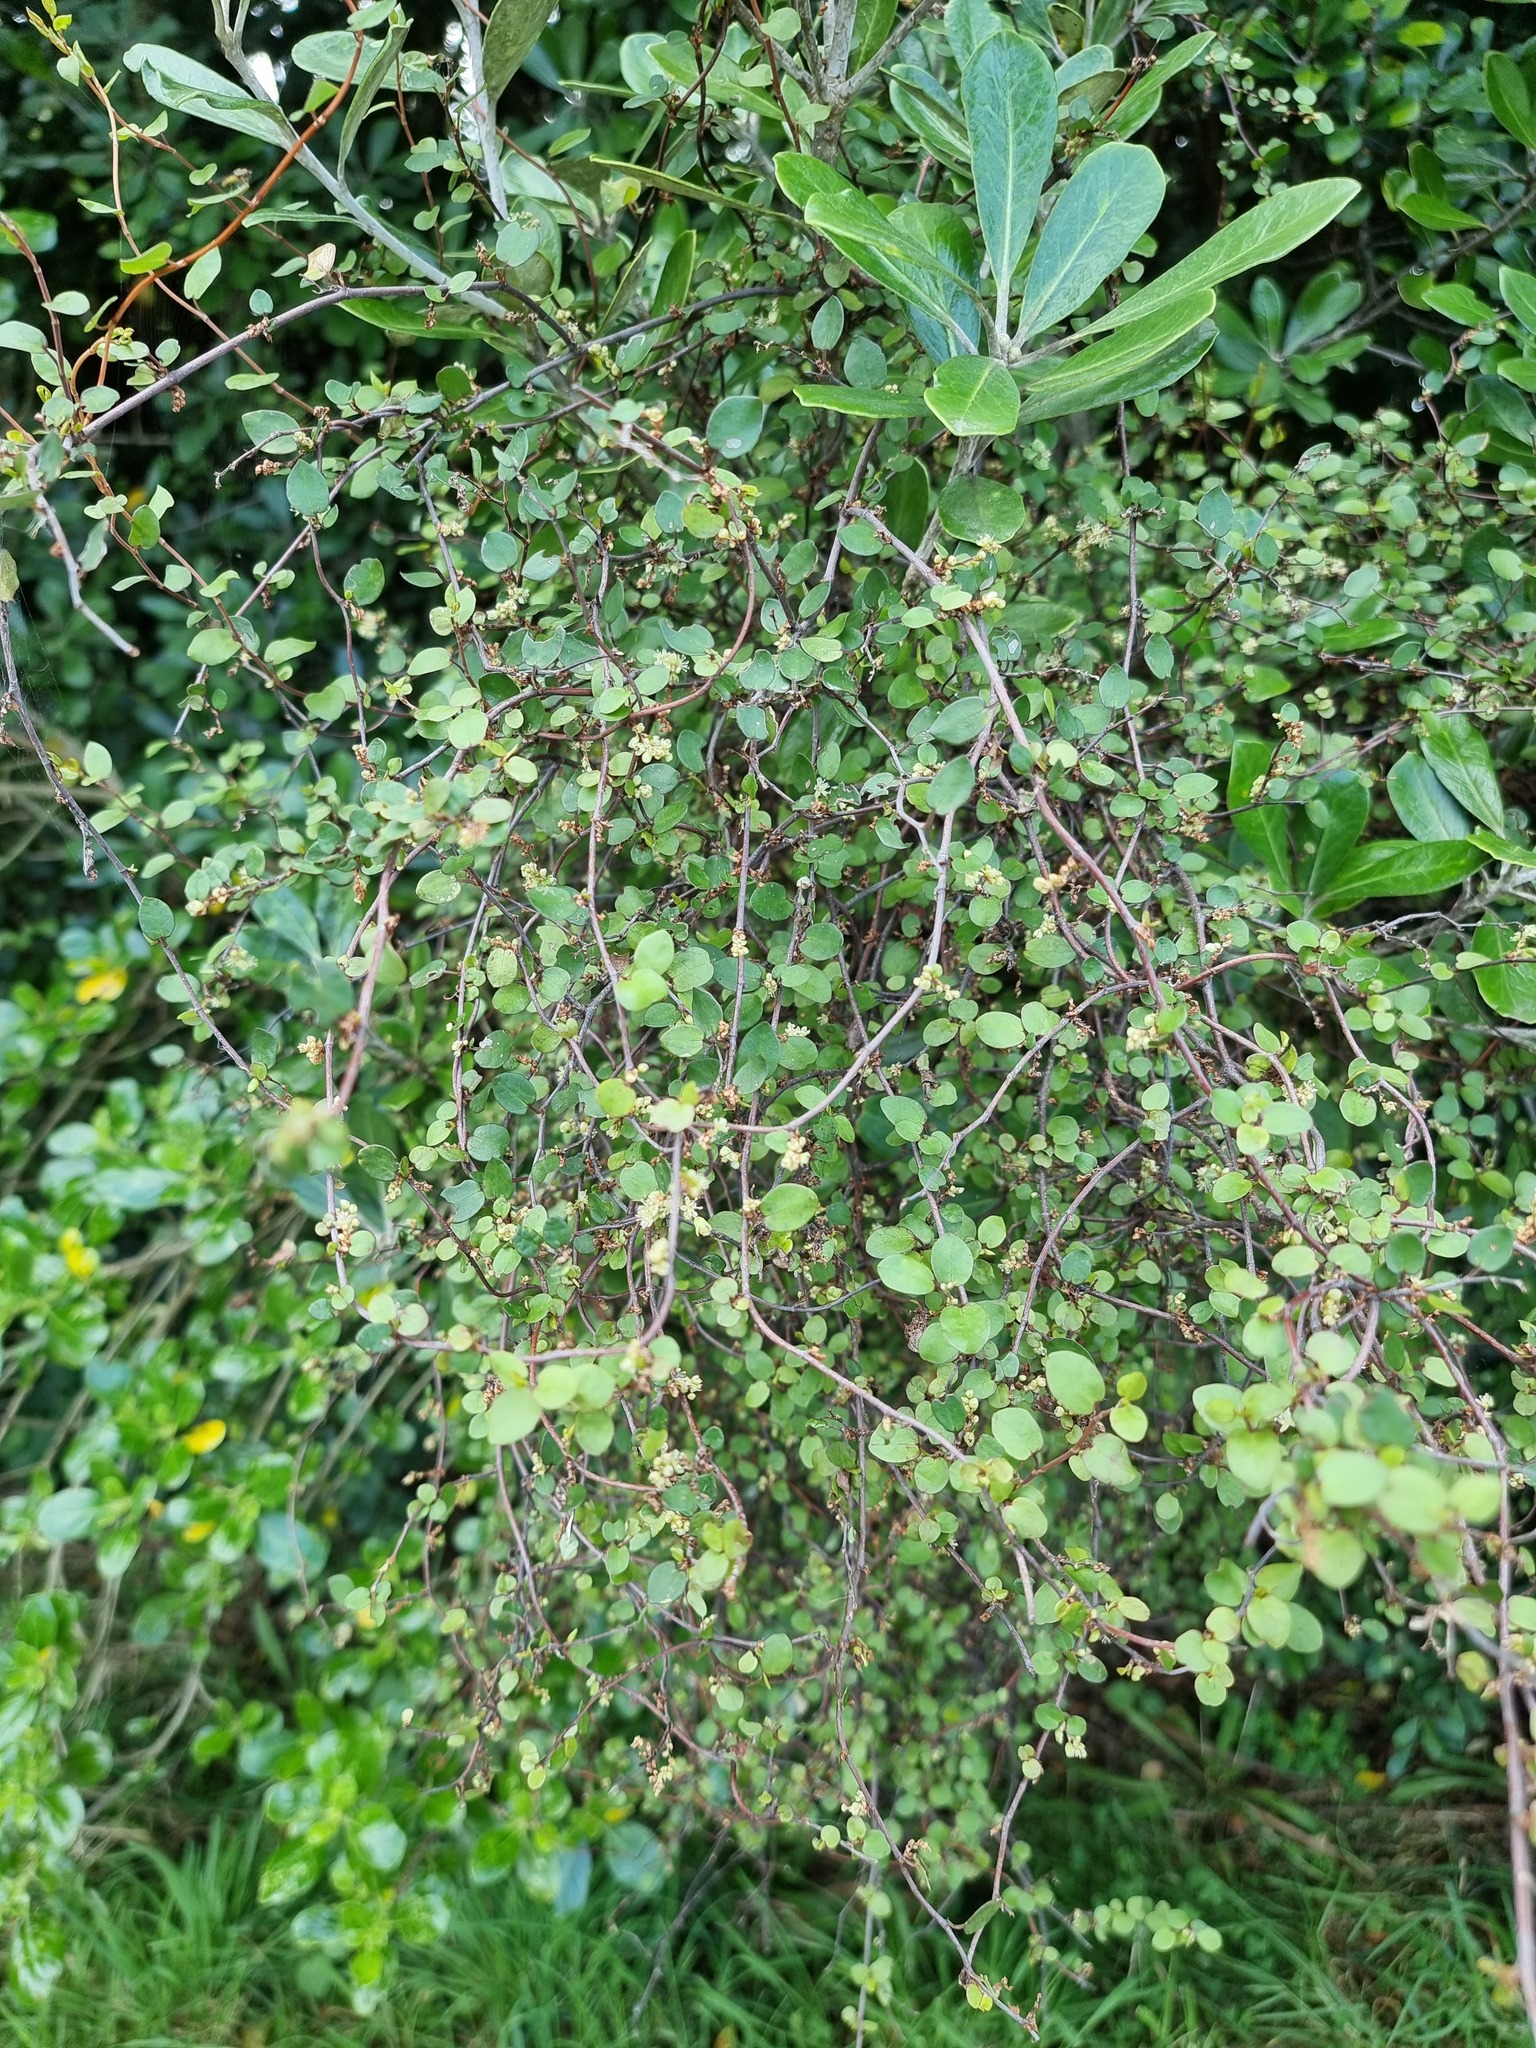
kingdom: Plantae
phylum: Tracheophyta
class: Magnoliopsida
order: Caryophyllales
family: Polygonaceae
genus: Muehlenbeckia
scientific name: Muehlenbeckia complexa
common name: Wireplant
